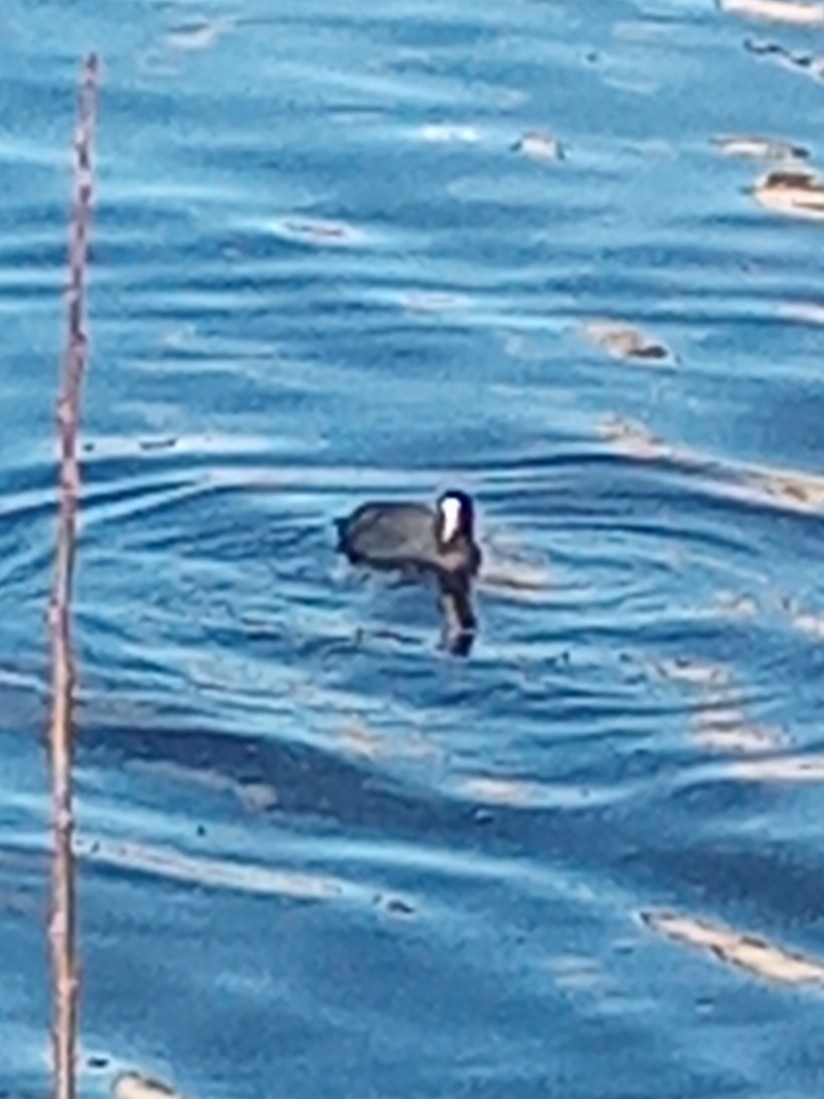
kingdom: Animalia
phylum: Chordata
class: Aves
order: Gruiformes
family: Rallidae
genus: Fulica
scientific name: Fulica atra
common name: Eurasian coot
